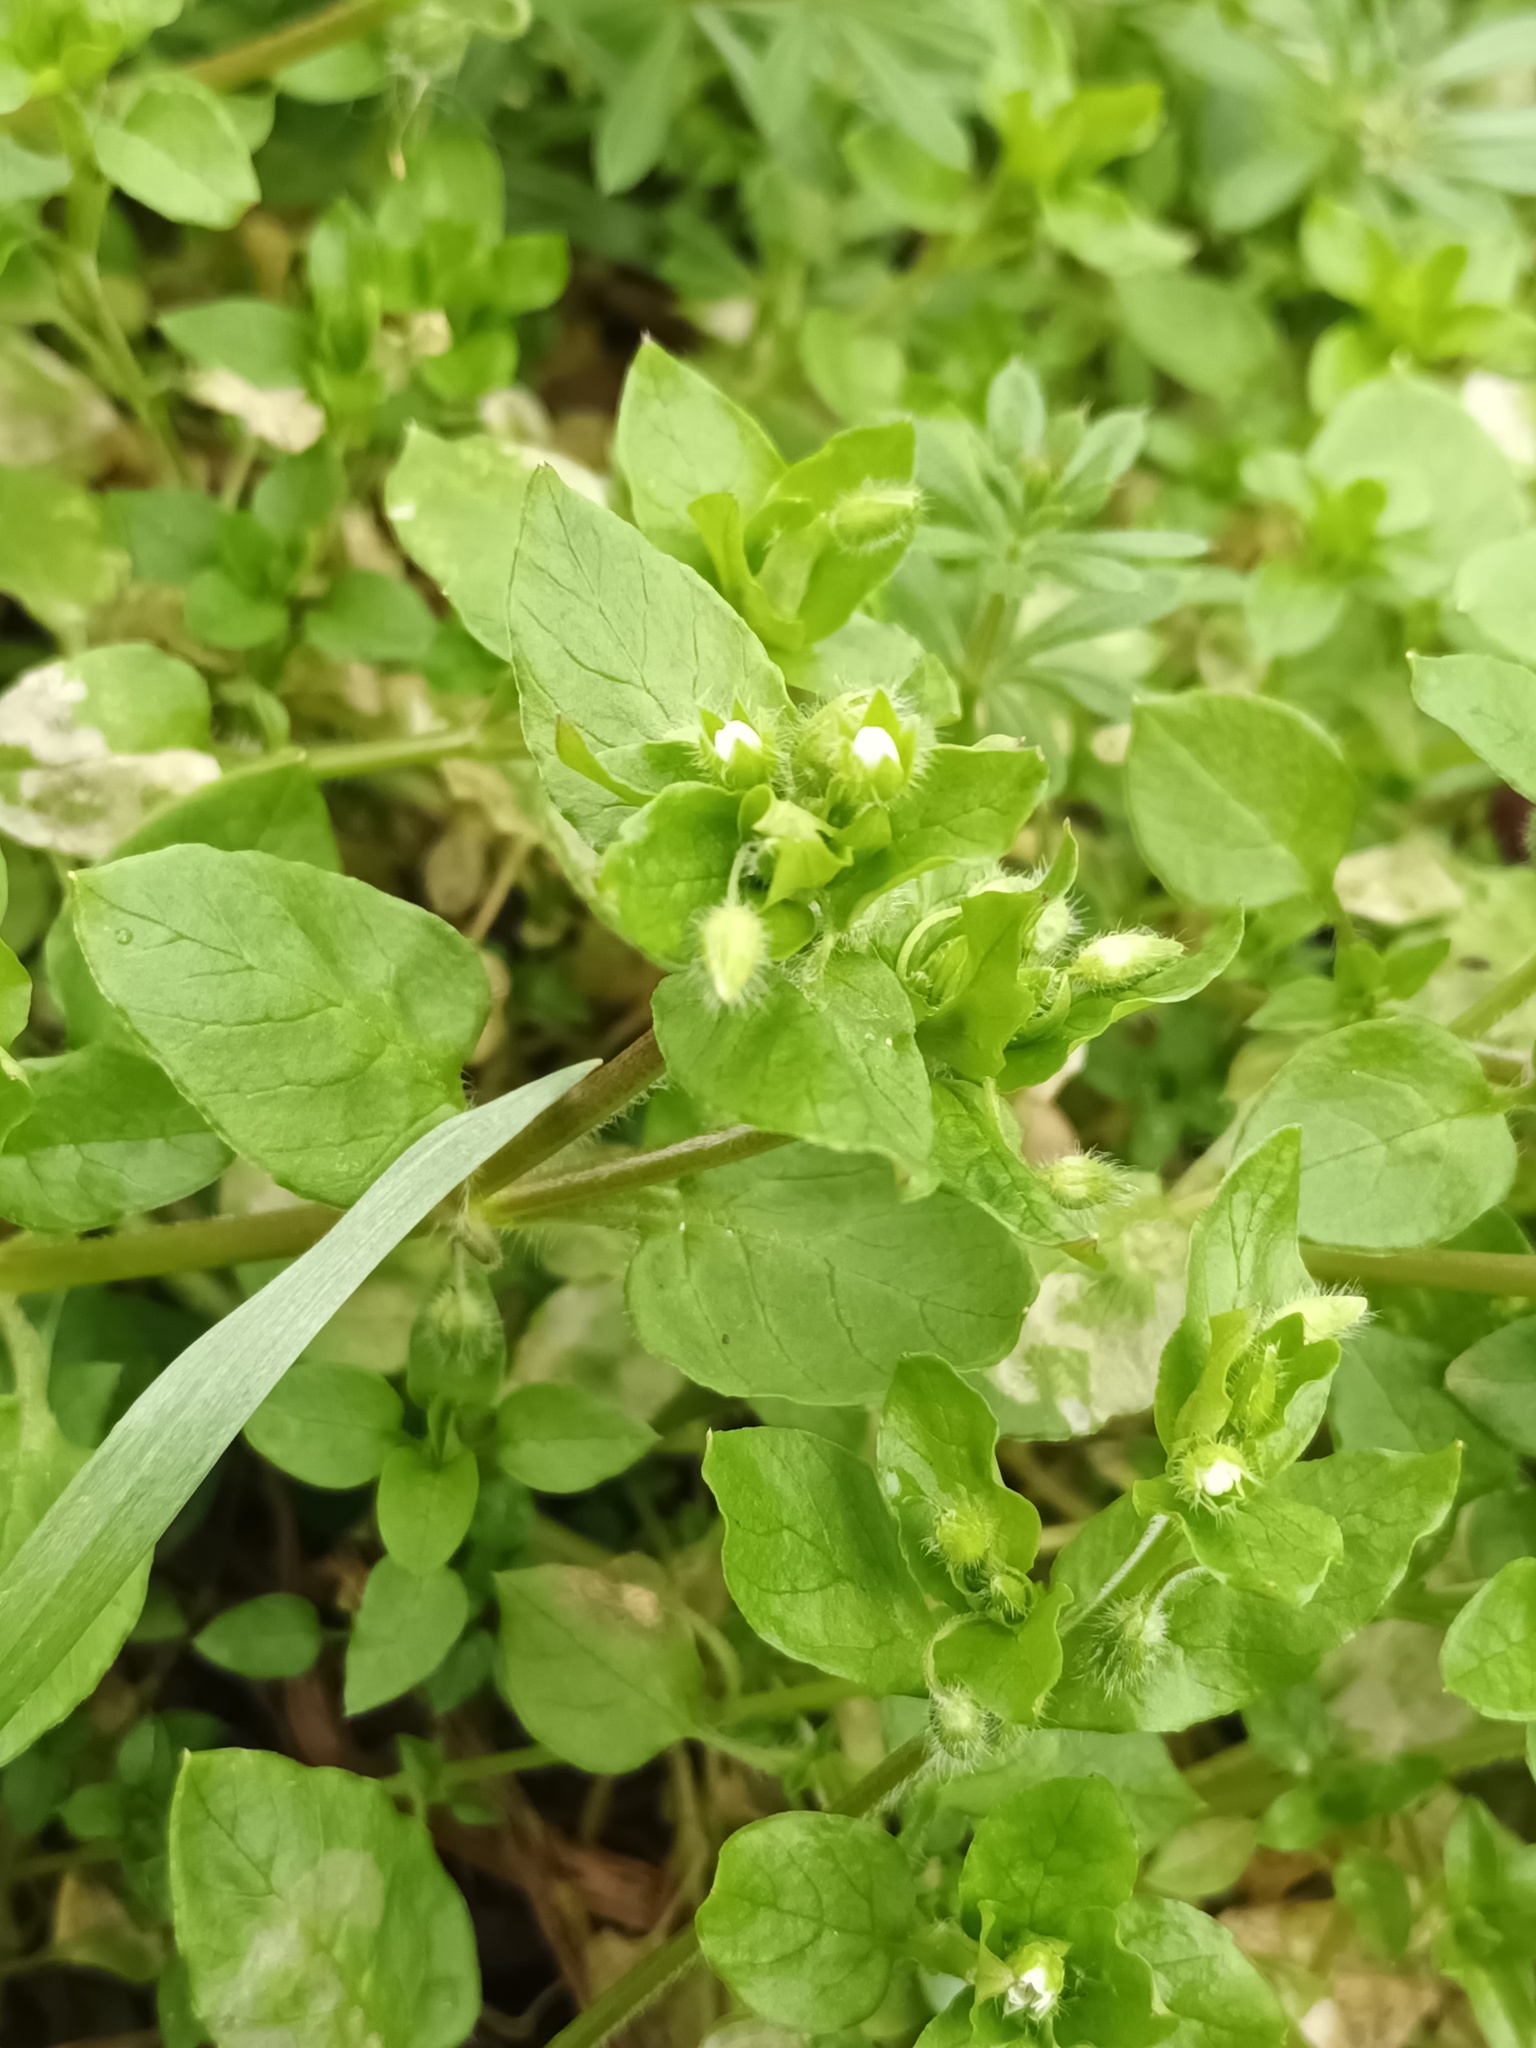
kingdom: Plantae
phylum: Tracheophyta
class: Magnoliopsida
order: Caryophyllales
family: Caryophyllaceae
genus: Stellaria
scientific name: Stellaria media
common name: Common chickweed
